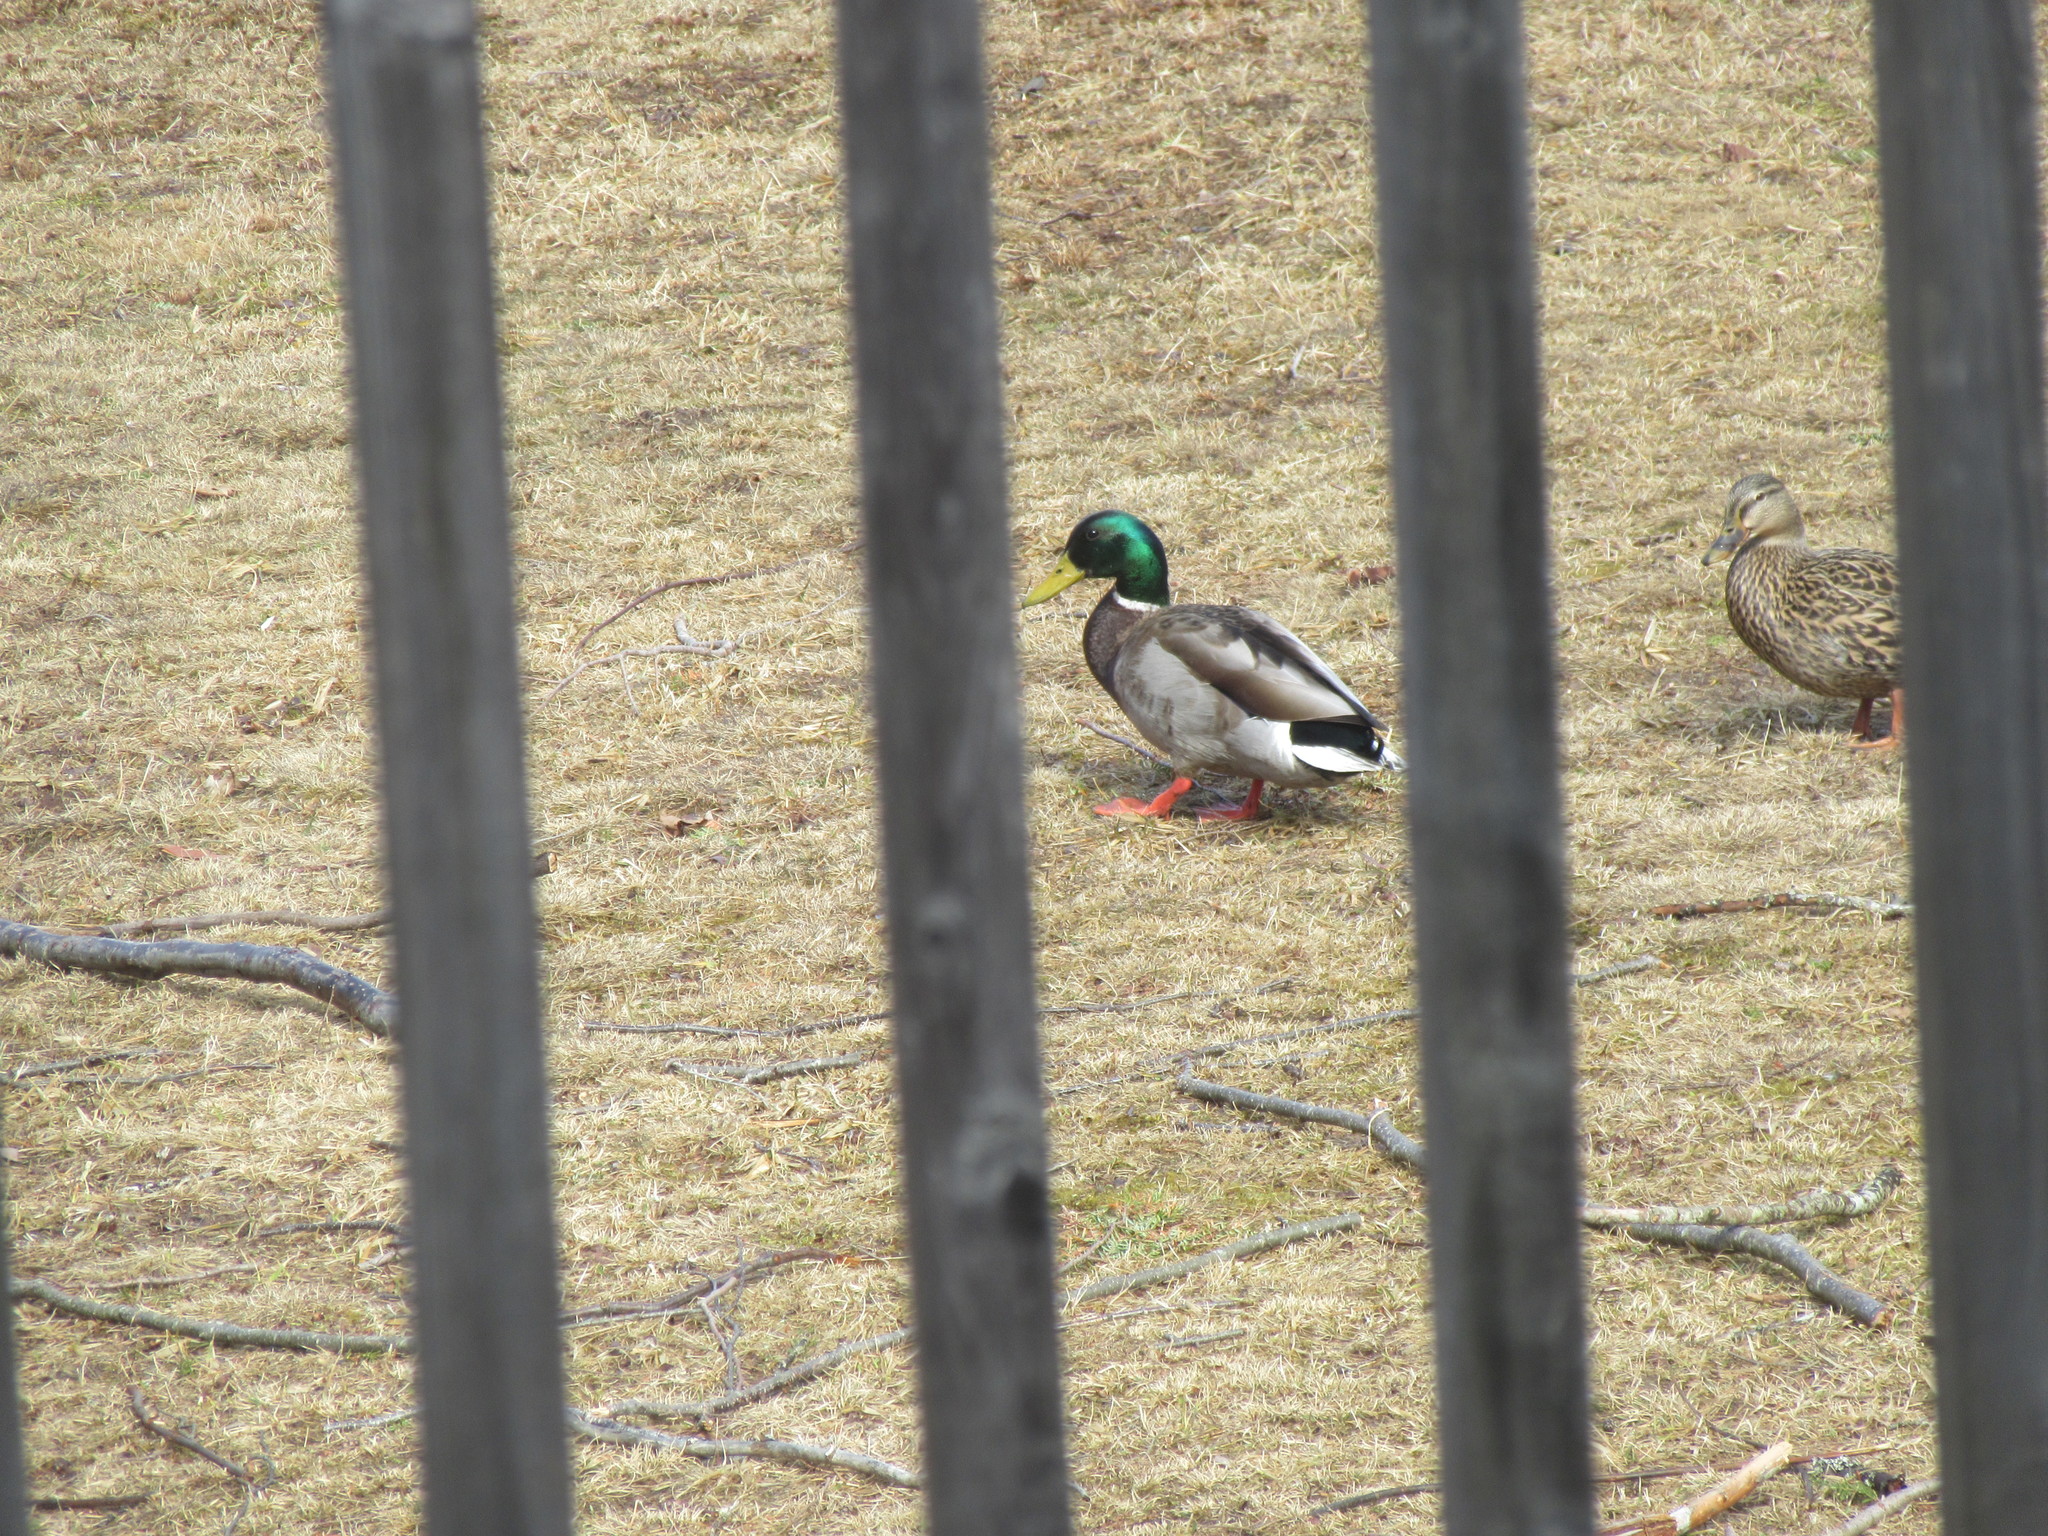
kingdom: Animalia
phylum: Chordata
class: Aves
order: Anseriformes
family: Anatidae
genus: Anas
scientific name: Anas platyrhynchos
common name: Mallard
